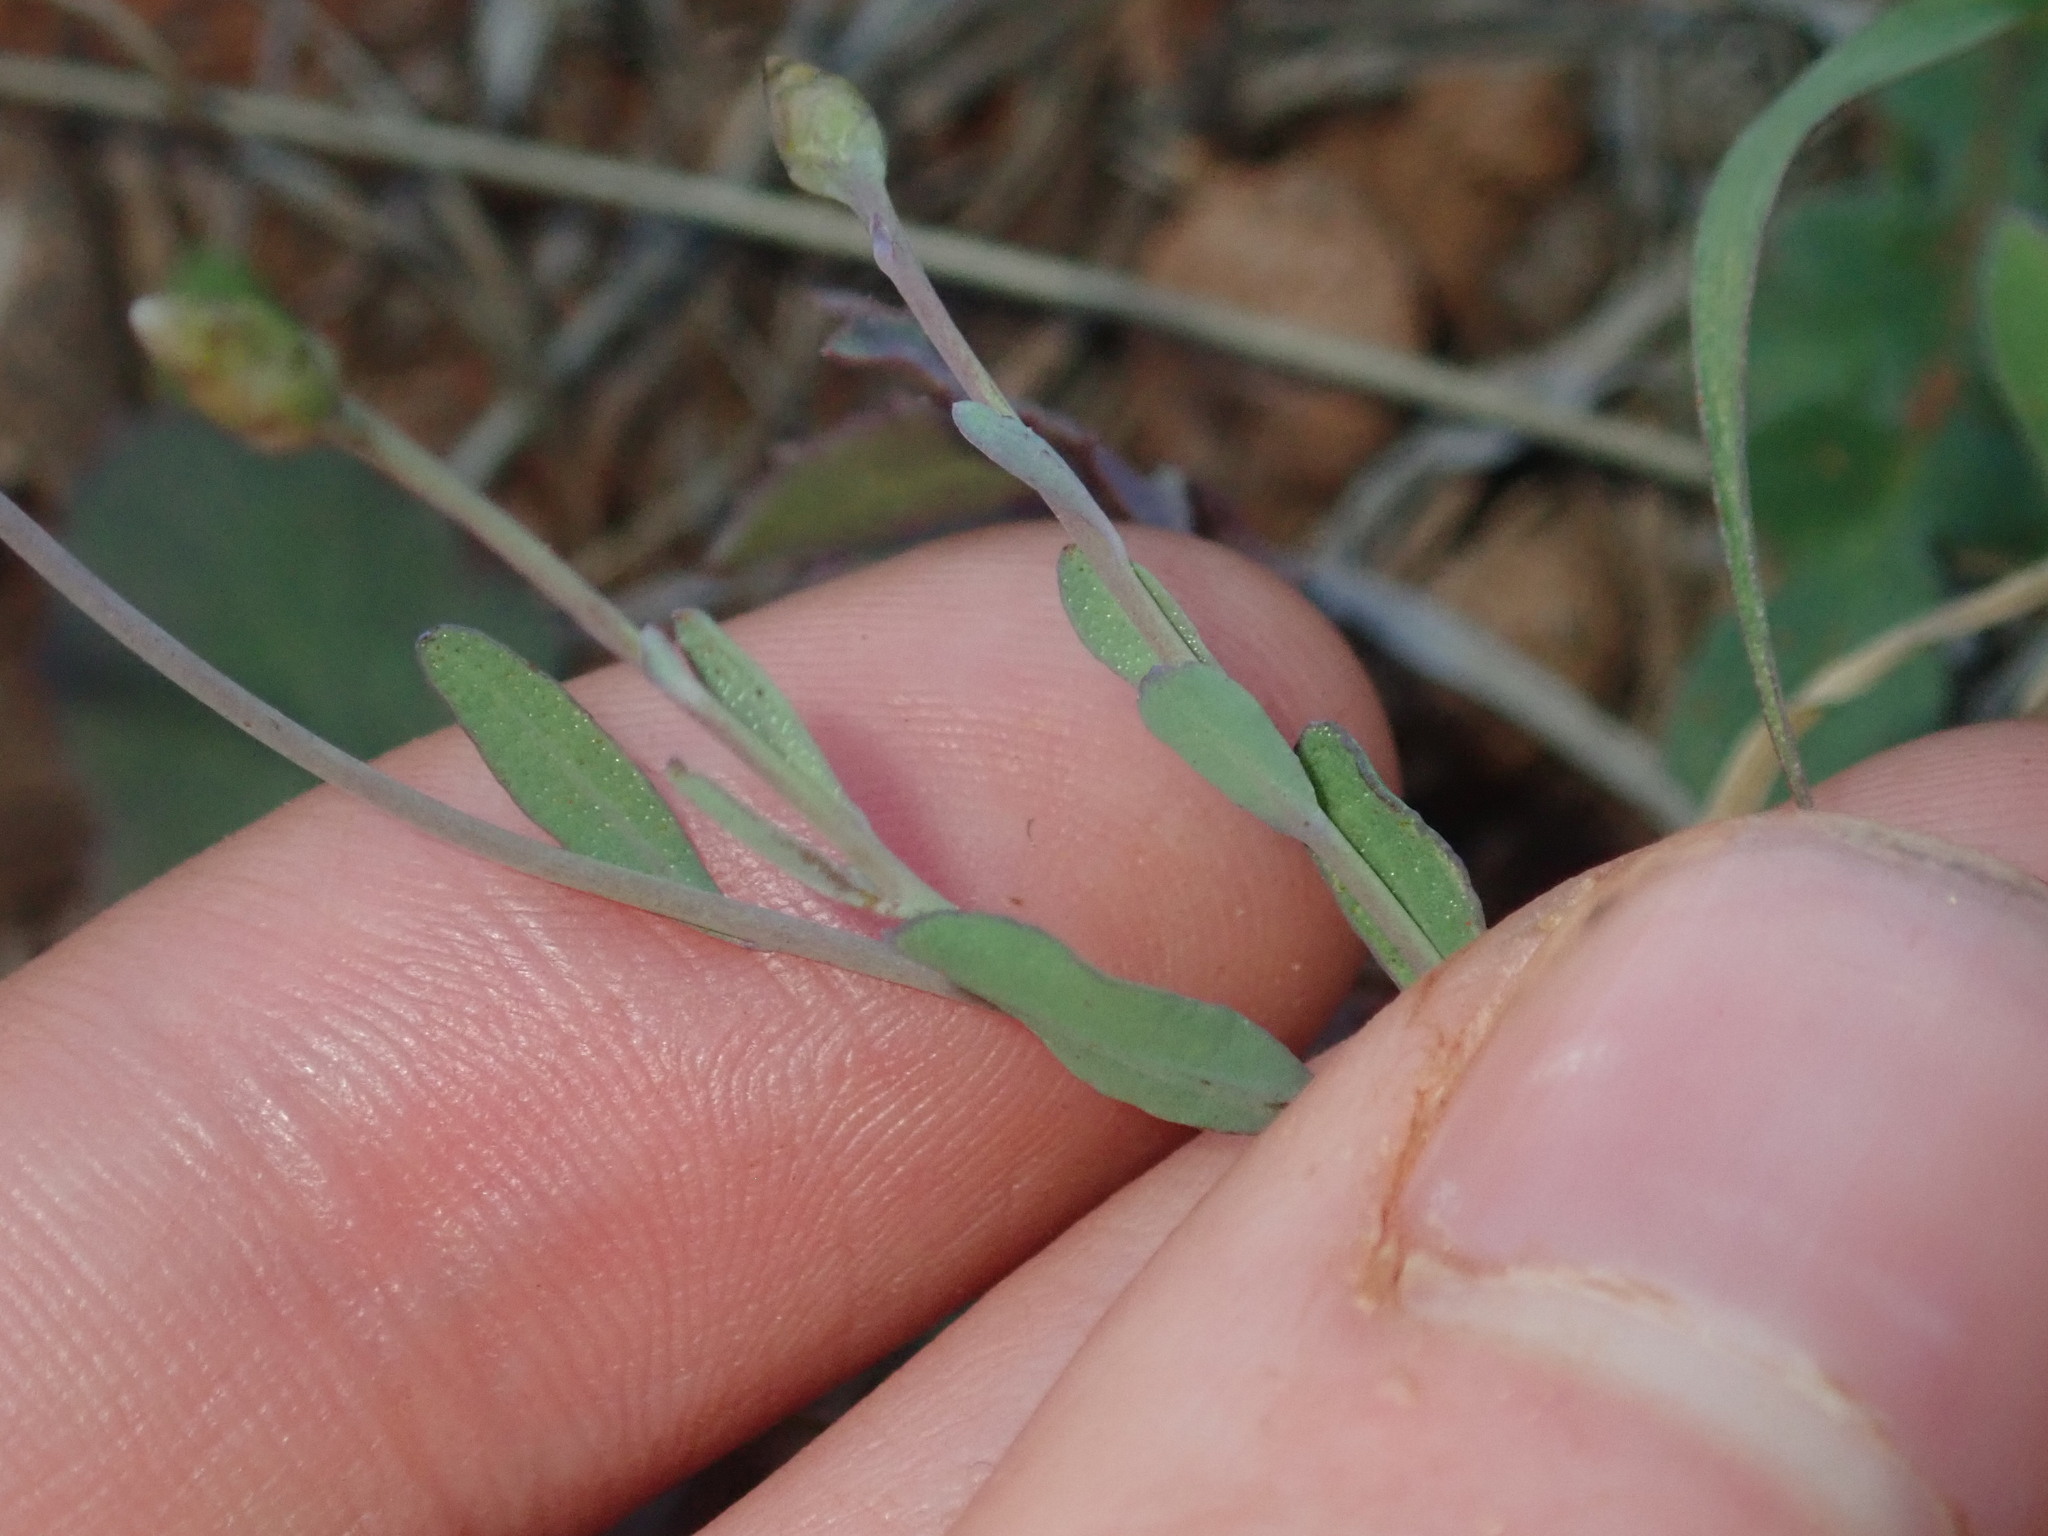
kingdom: Plantae
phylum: Tracheophyta
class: Magnoliopsida
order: Asterales
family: Asteraceae
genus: Rhodanthe
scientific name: Rhodanthe stricta
